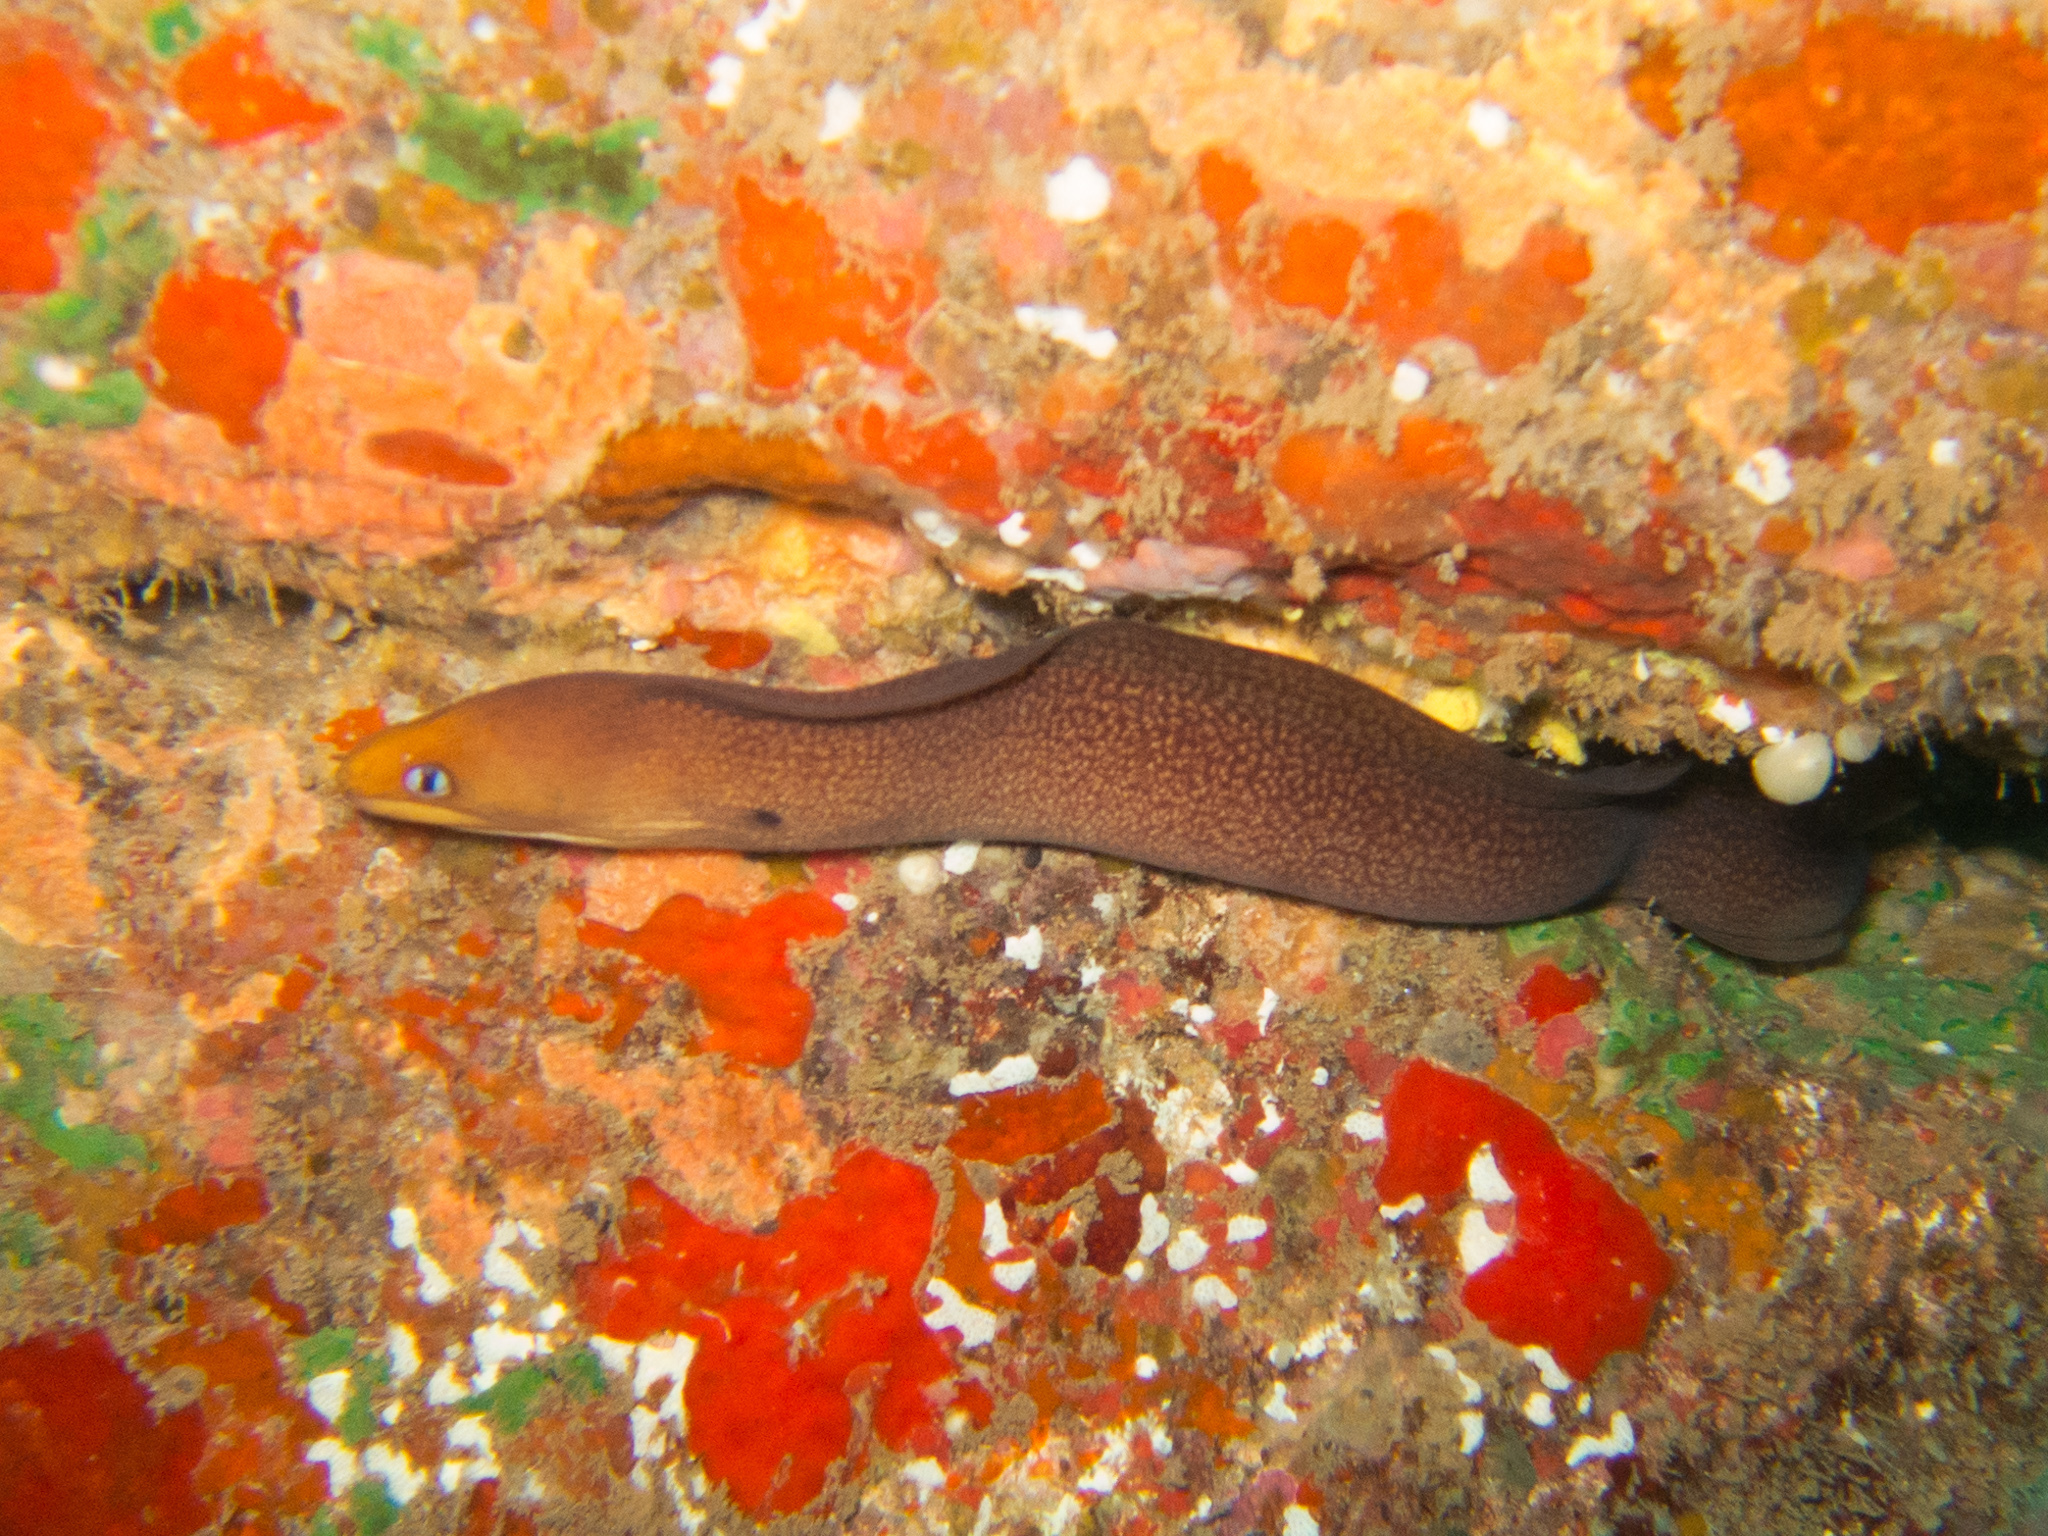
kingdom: Animalia
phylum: Chordata
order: Anguilliformes
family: Muraenidae
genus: Gymnothorax
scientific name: Gymnothorax melatremus
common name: Dwarf moray
